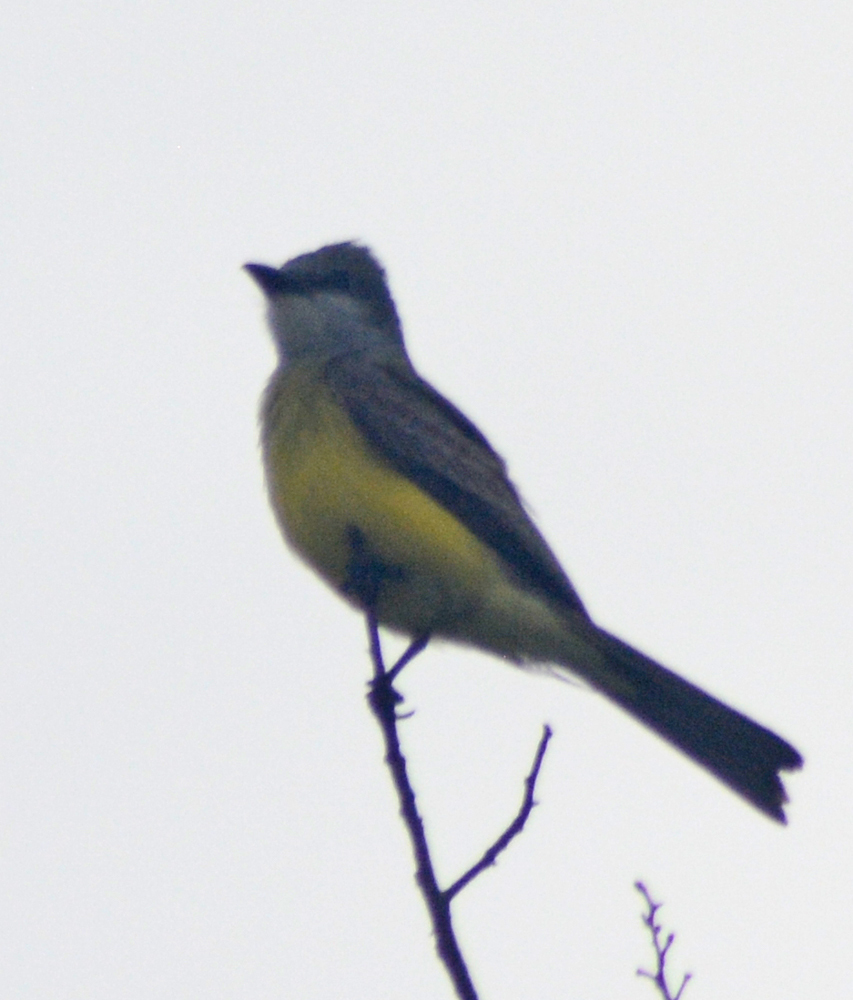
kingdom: Animalia
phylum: Chordata
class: Aves
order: Passeriformes
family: Tyrannidae
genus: Tyrannus
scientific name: Tyrannus couchii
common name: Couch's kingbird
